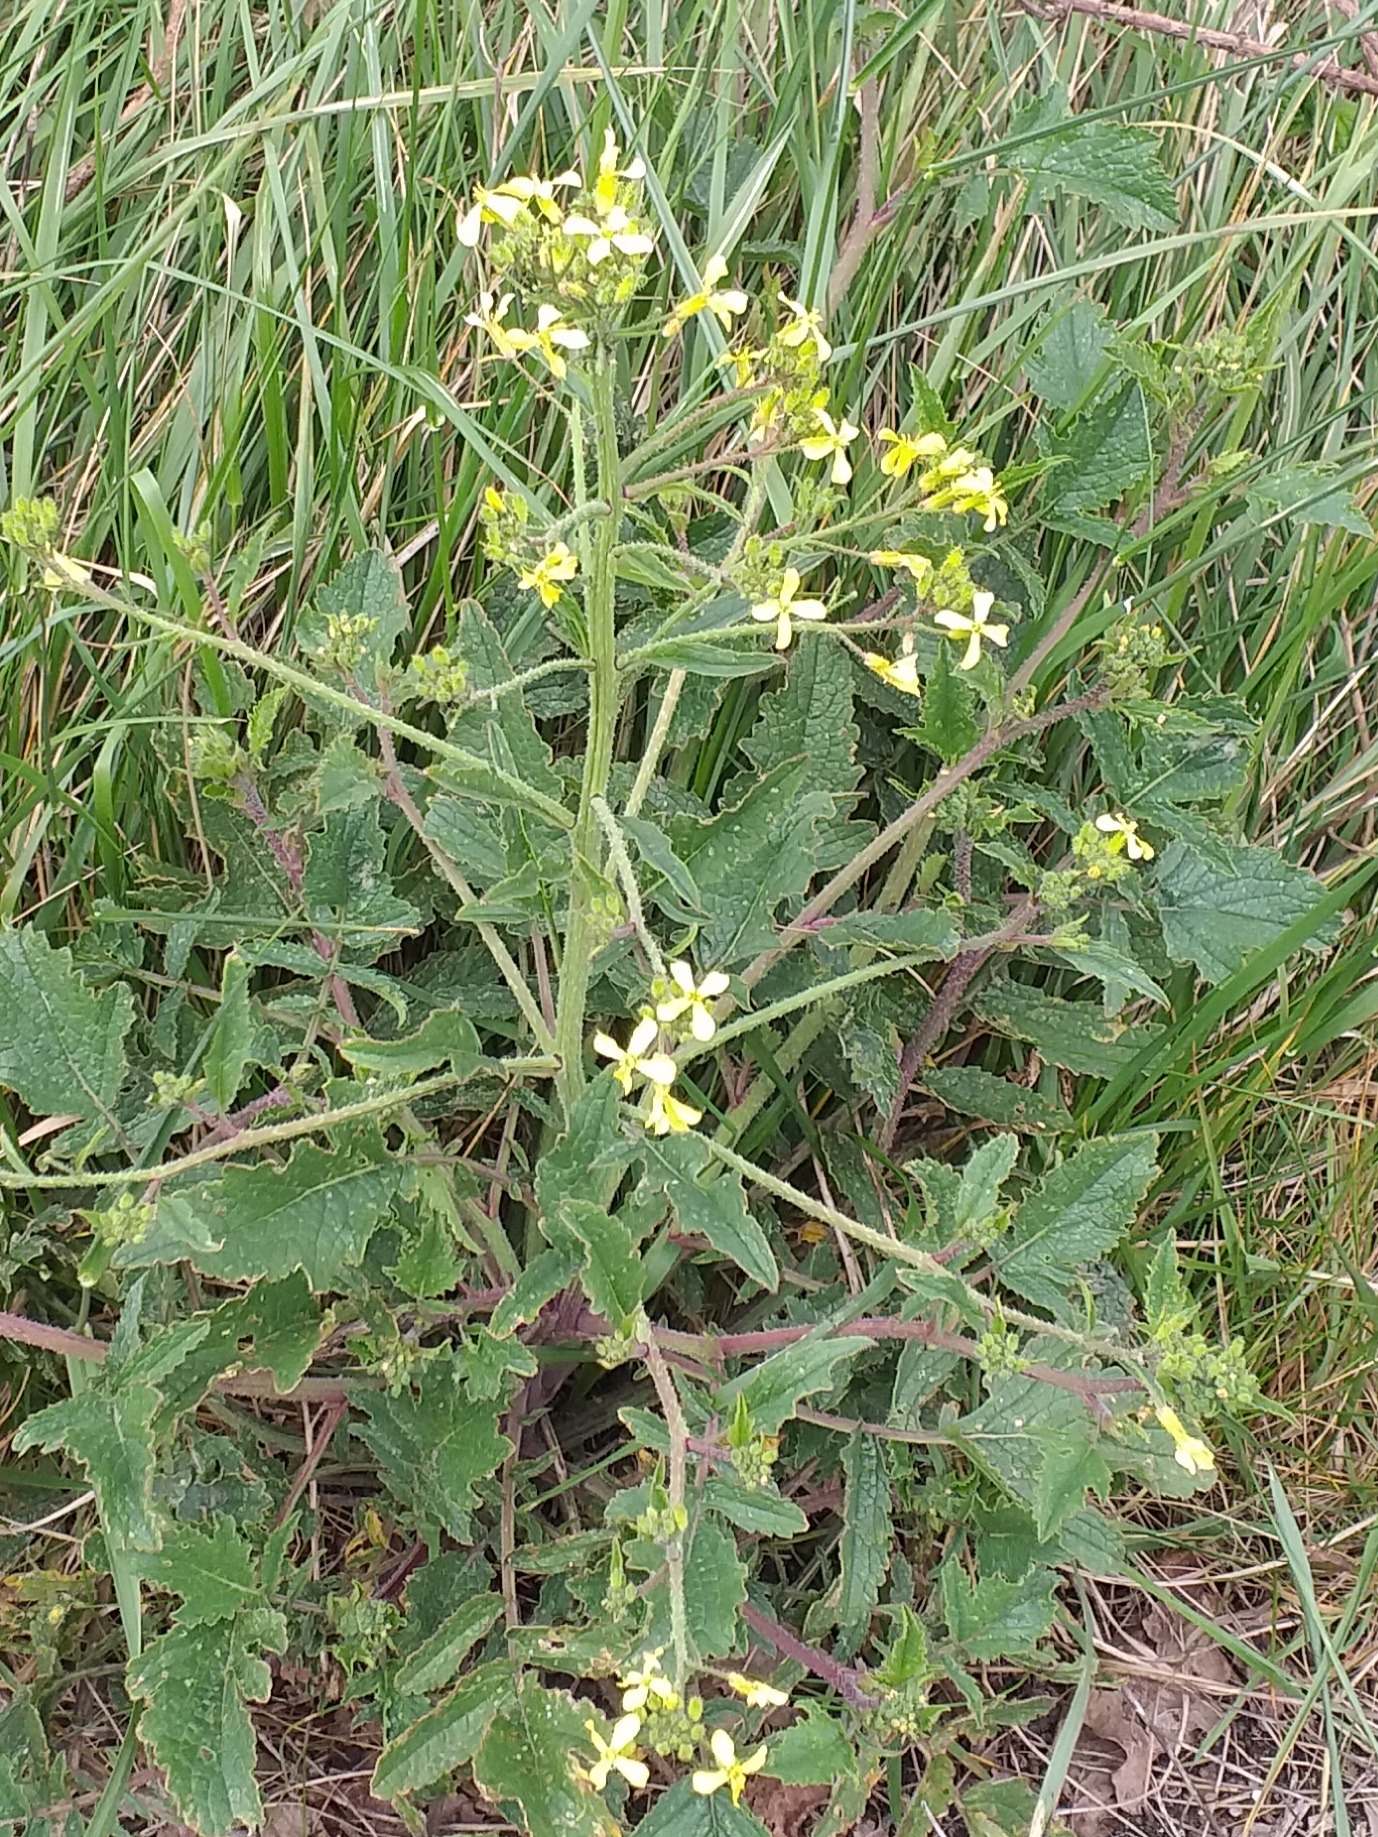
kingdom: Plantae
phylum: Tracheophyta
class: Magnoliopsida
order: Brassicales
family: Brassicaceae
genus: Raphanus
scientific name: Raphanus raphanistrum
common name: Wild radish
